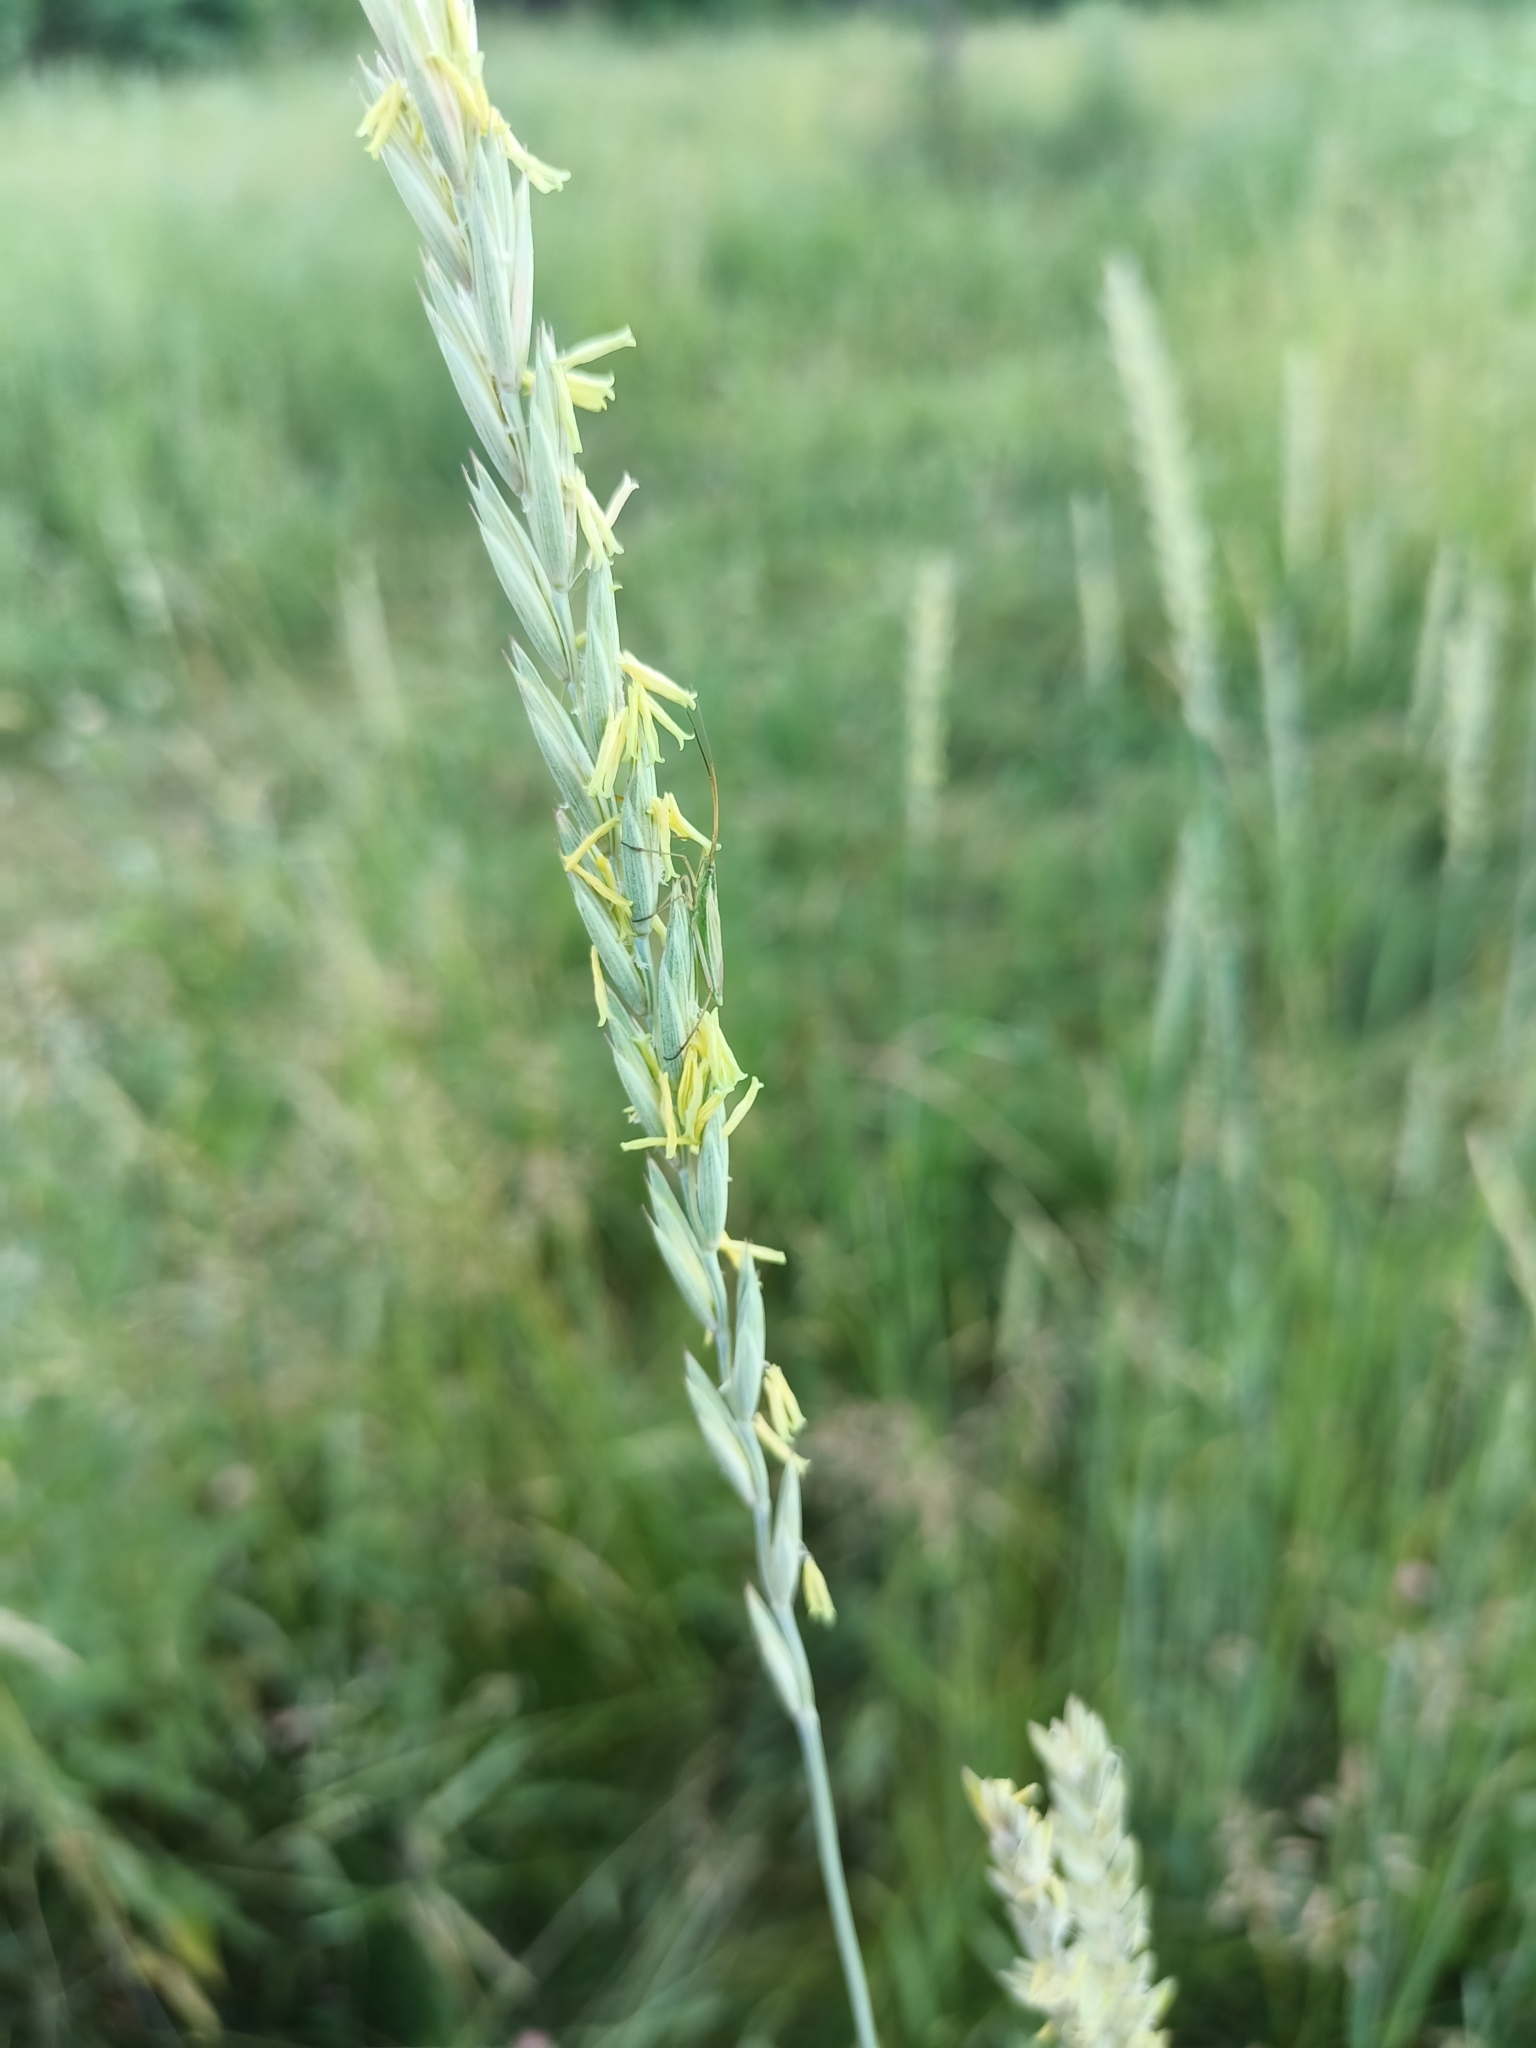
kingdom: Animalia
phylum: Arthropoda
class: Insecta
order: Hemiptera
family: Miridae
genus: Megaloceroea
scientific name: Megaloceroea recticornis
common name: Plant bug
